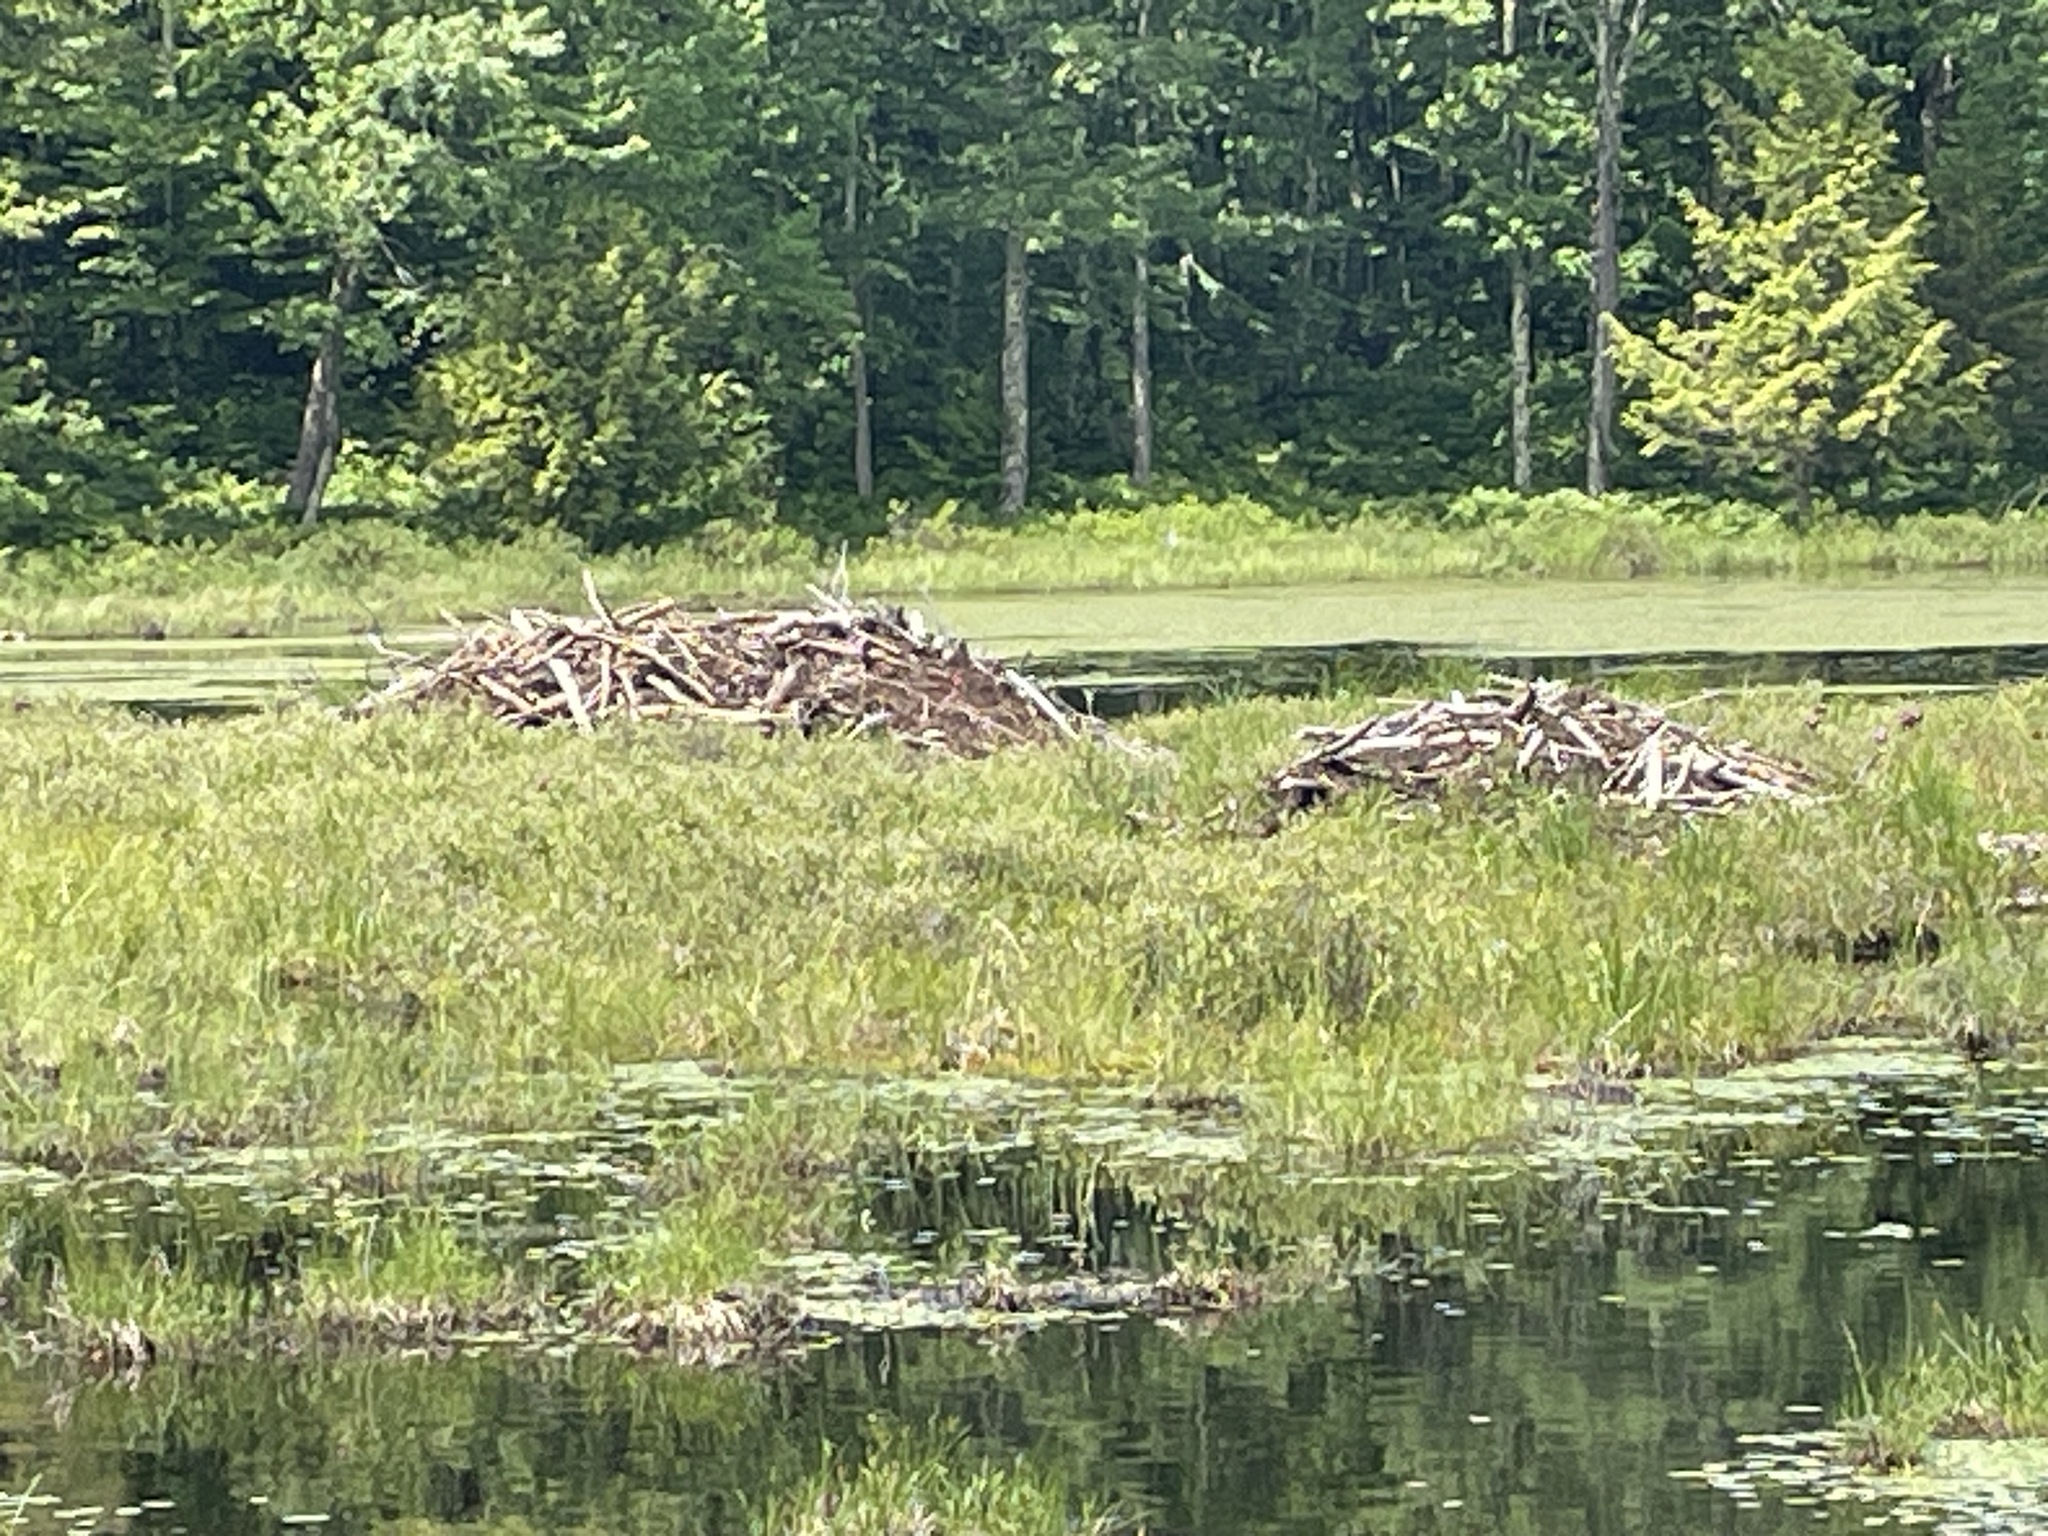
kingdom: Animalia
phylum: Chordata
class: Mammalia
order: Rodentia
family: Castoridae
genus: Castor
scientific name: Castor canadensis
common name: American beaver
